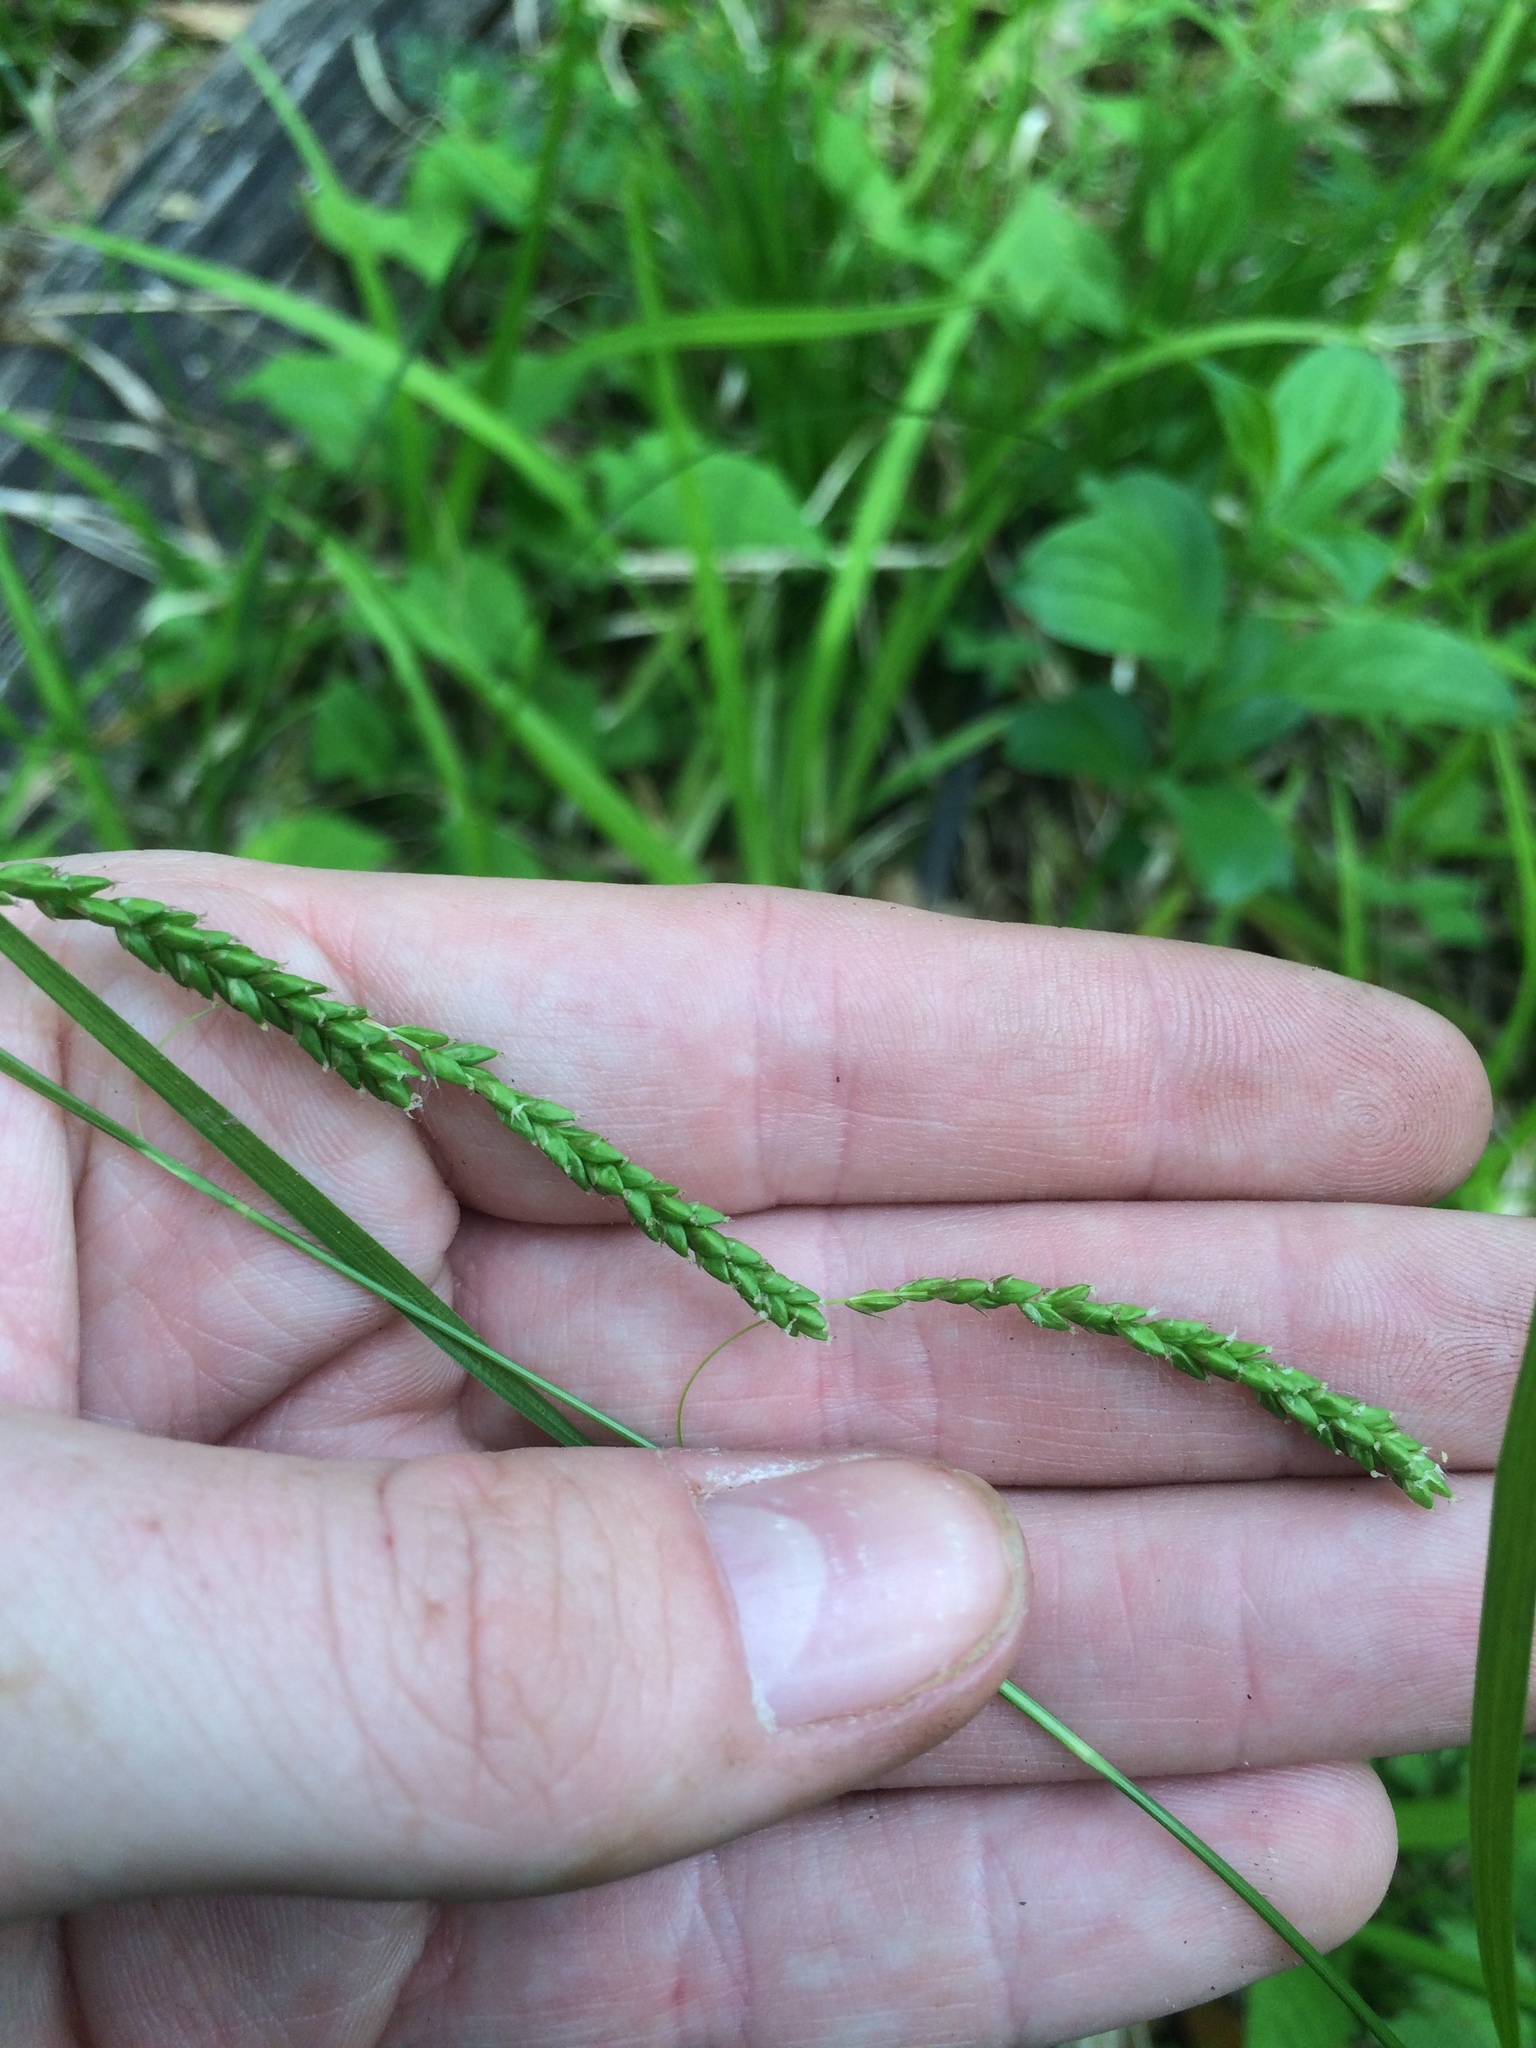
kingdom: Plantae
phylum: Tracheophyta
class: Liliopsida
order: Poales
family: Cyperaceae
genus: Carex
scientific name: Carex gracillima
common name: Graceful sedge
